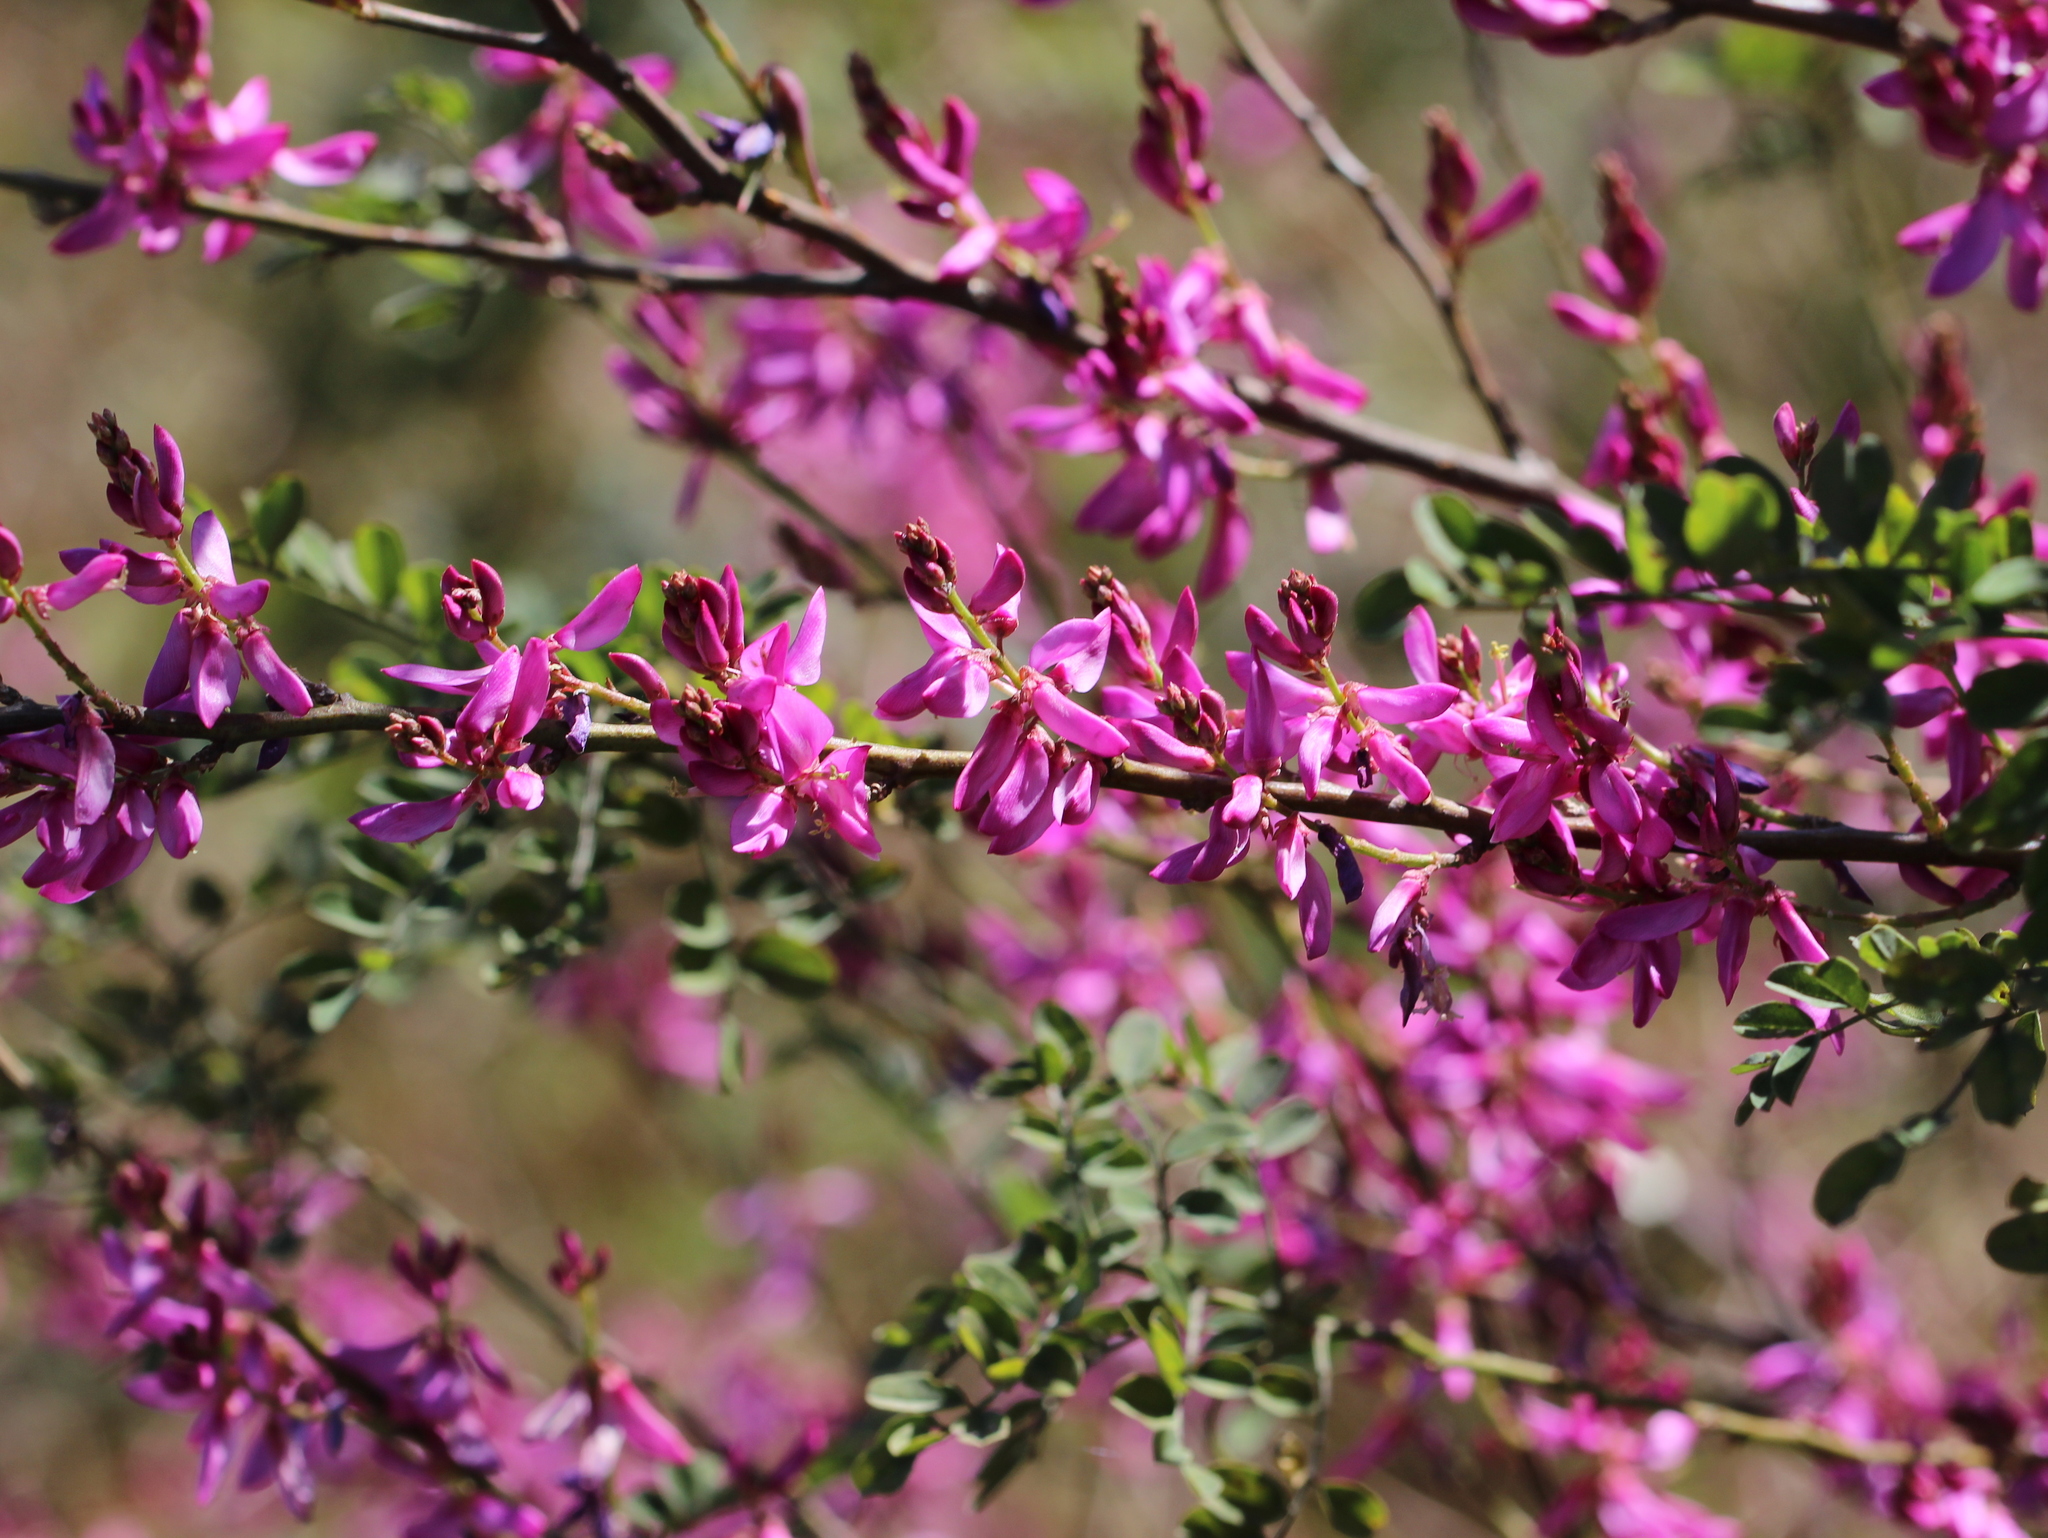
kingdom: Plantae
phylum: Tracheophyta
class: Magnoliopsida
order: Fabales
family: Fabaceae
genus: Indigofera
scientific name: Indigofera cassioides
